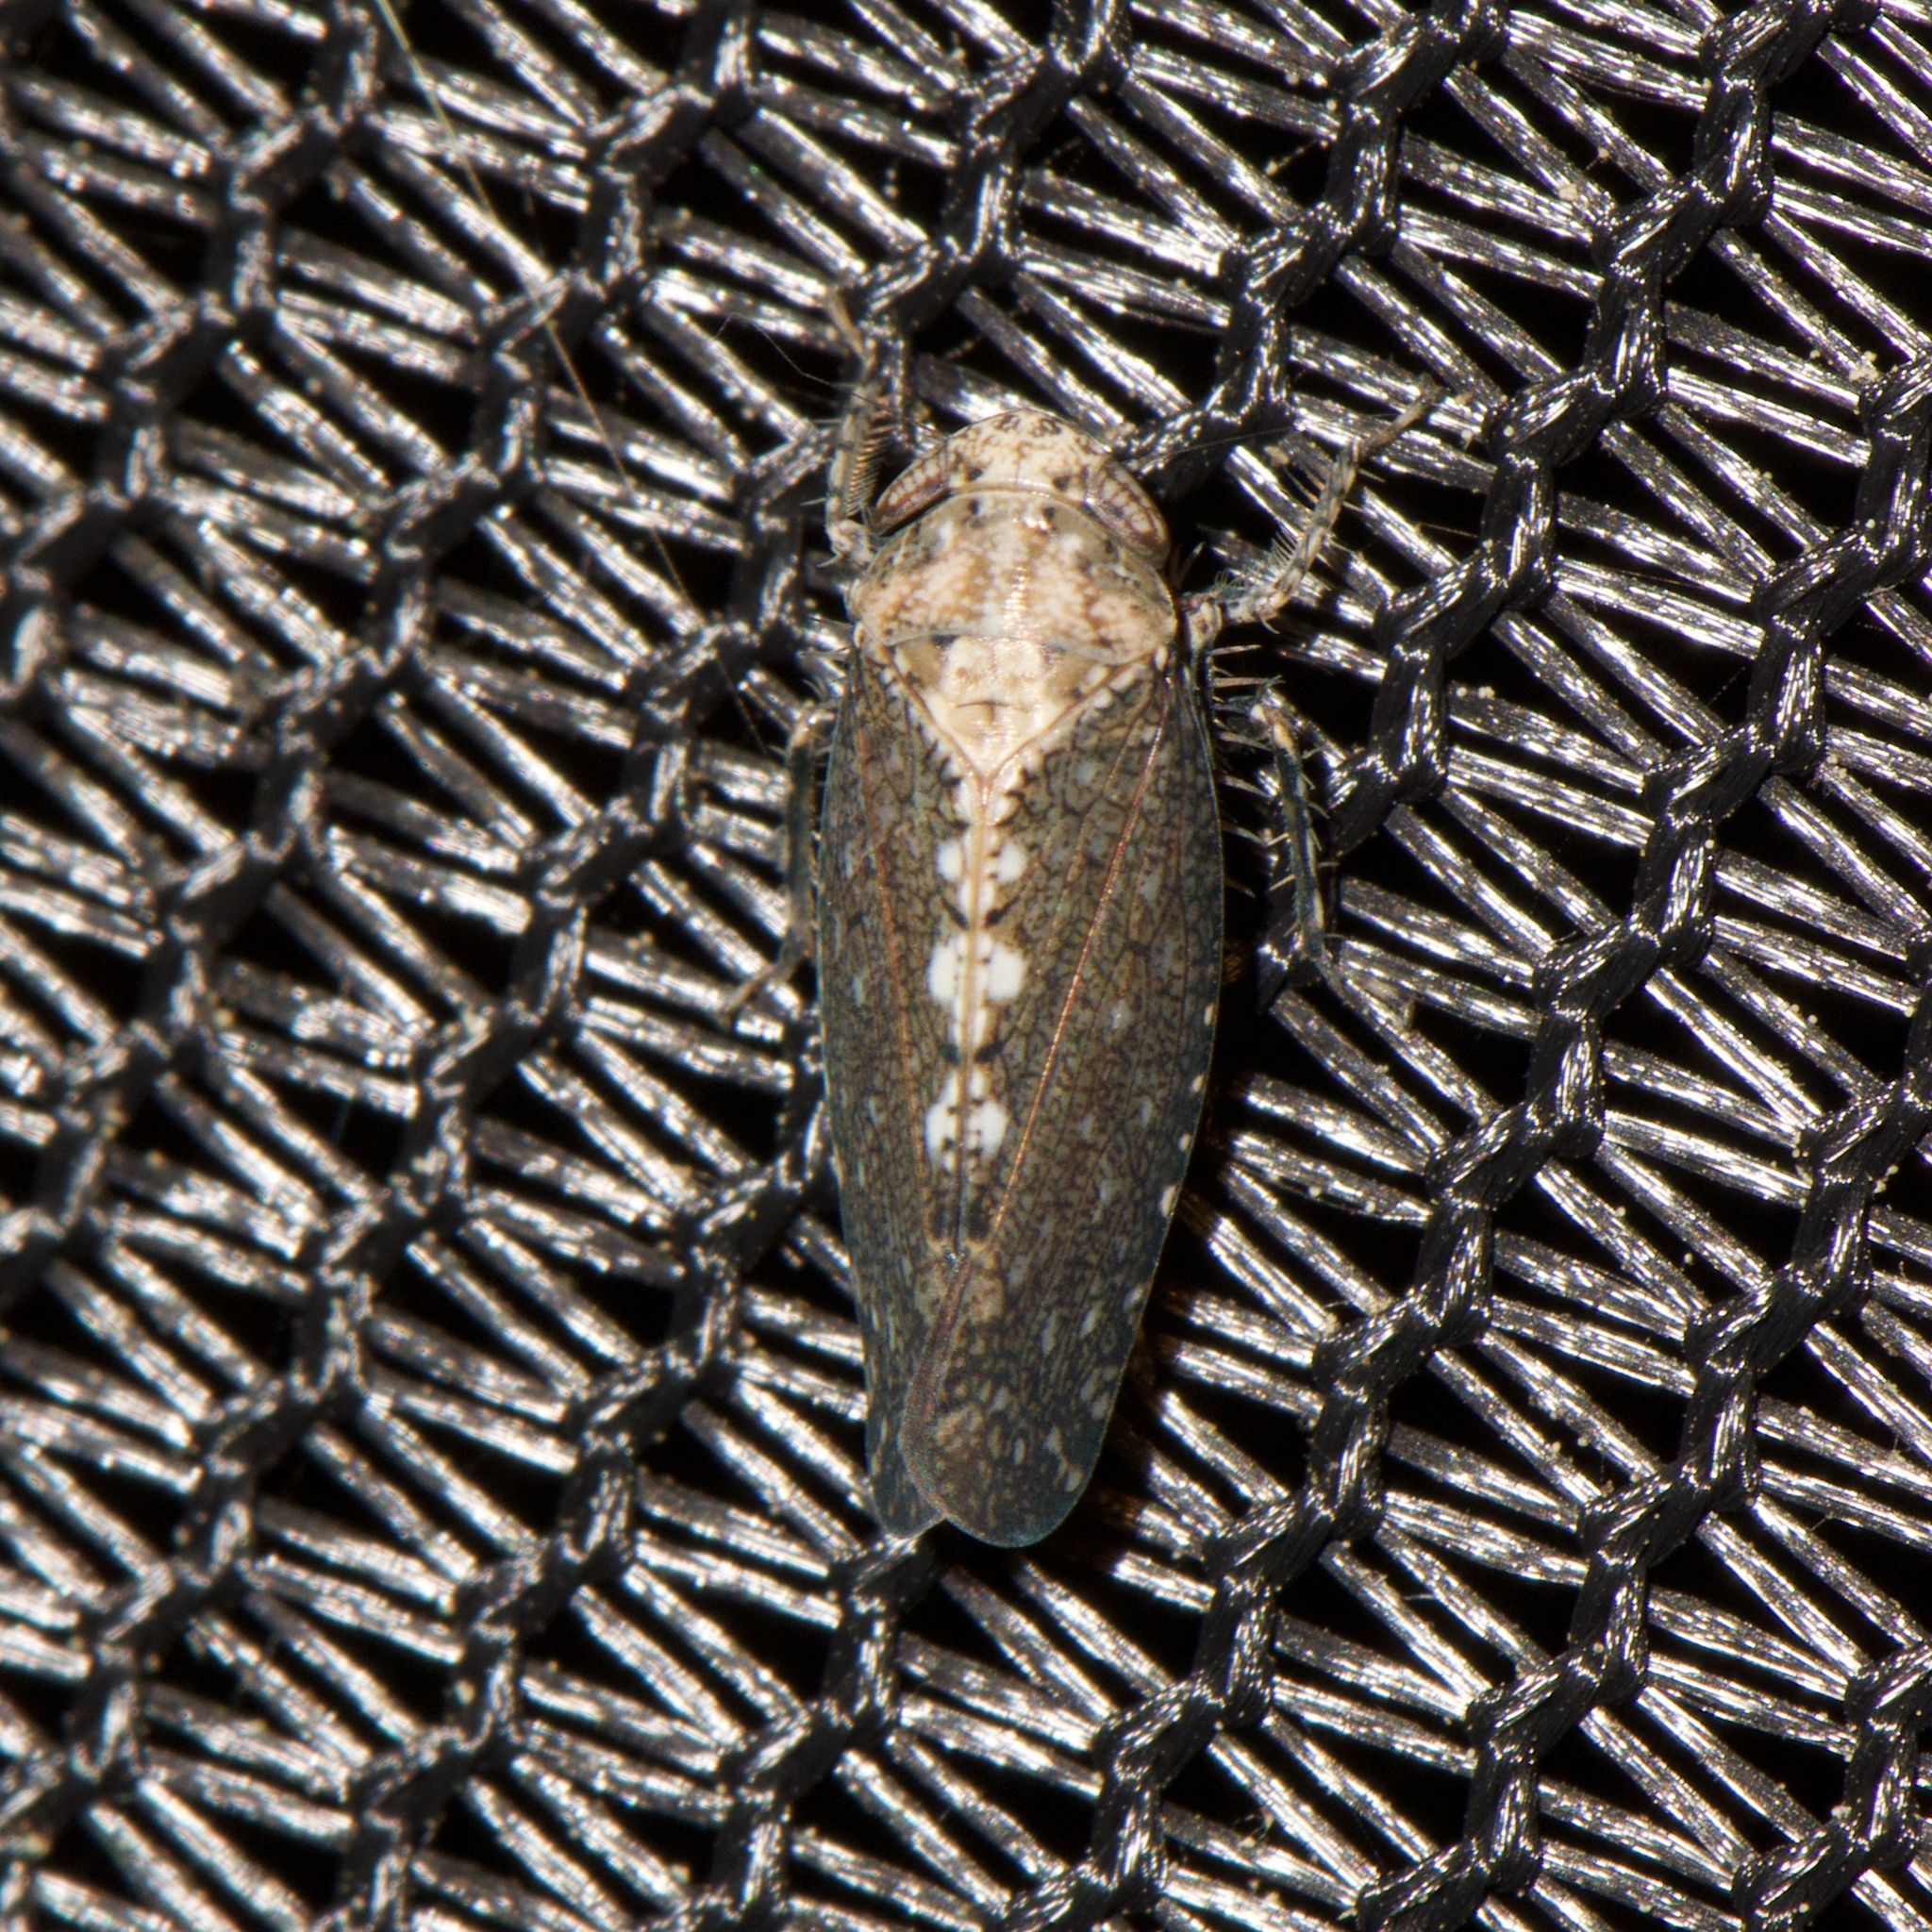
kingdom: Animalia
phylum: Arthropoda
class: Insecta
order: Hemiptera
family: Cicadellidae
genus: Excultanus
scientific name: Excultanus excultus
